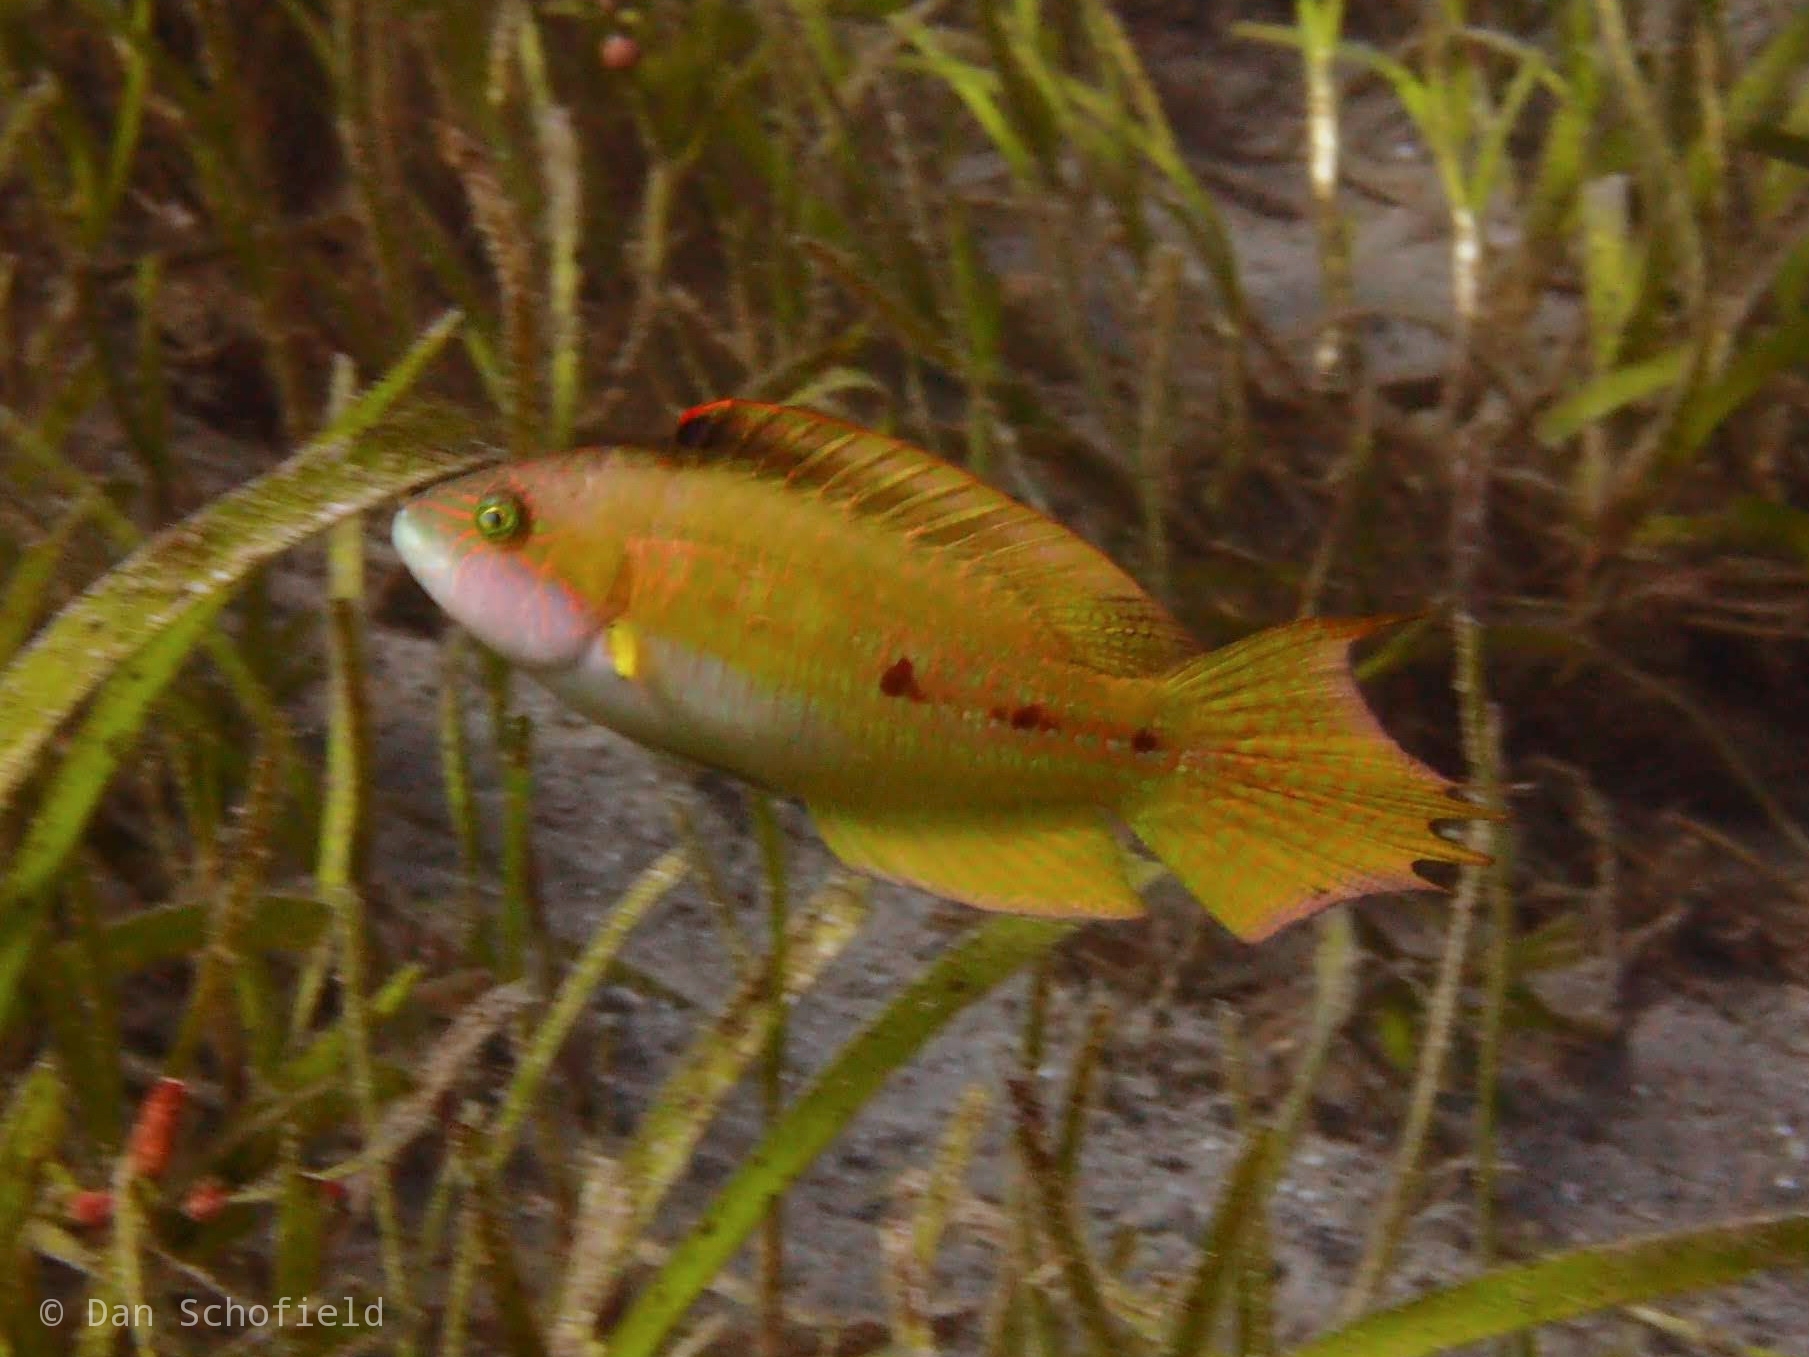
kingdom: Animalia
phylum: Chordata
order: Perciformes
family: Labridae
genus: Oxycheilinus
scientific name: Oxycheilinus bimaculatus
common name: Comettailed wrasse
